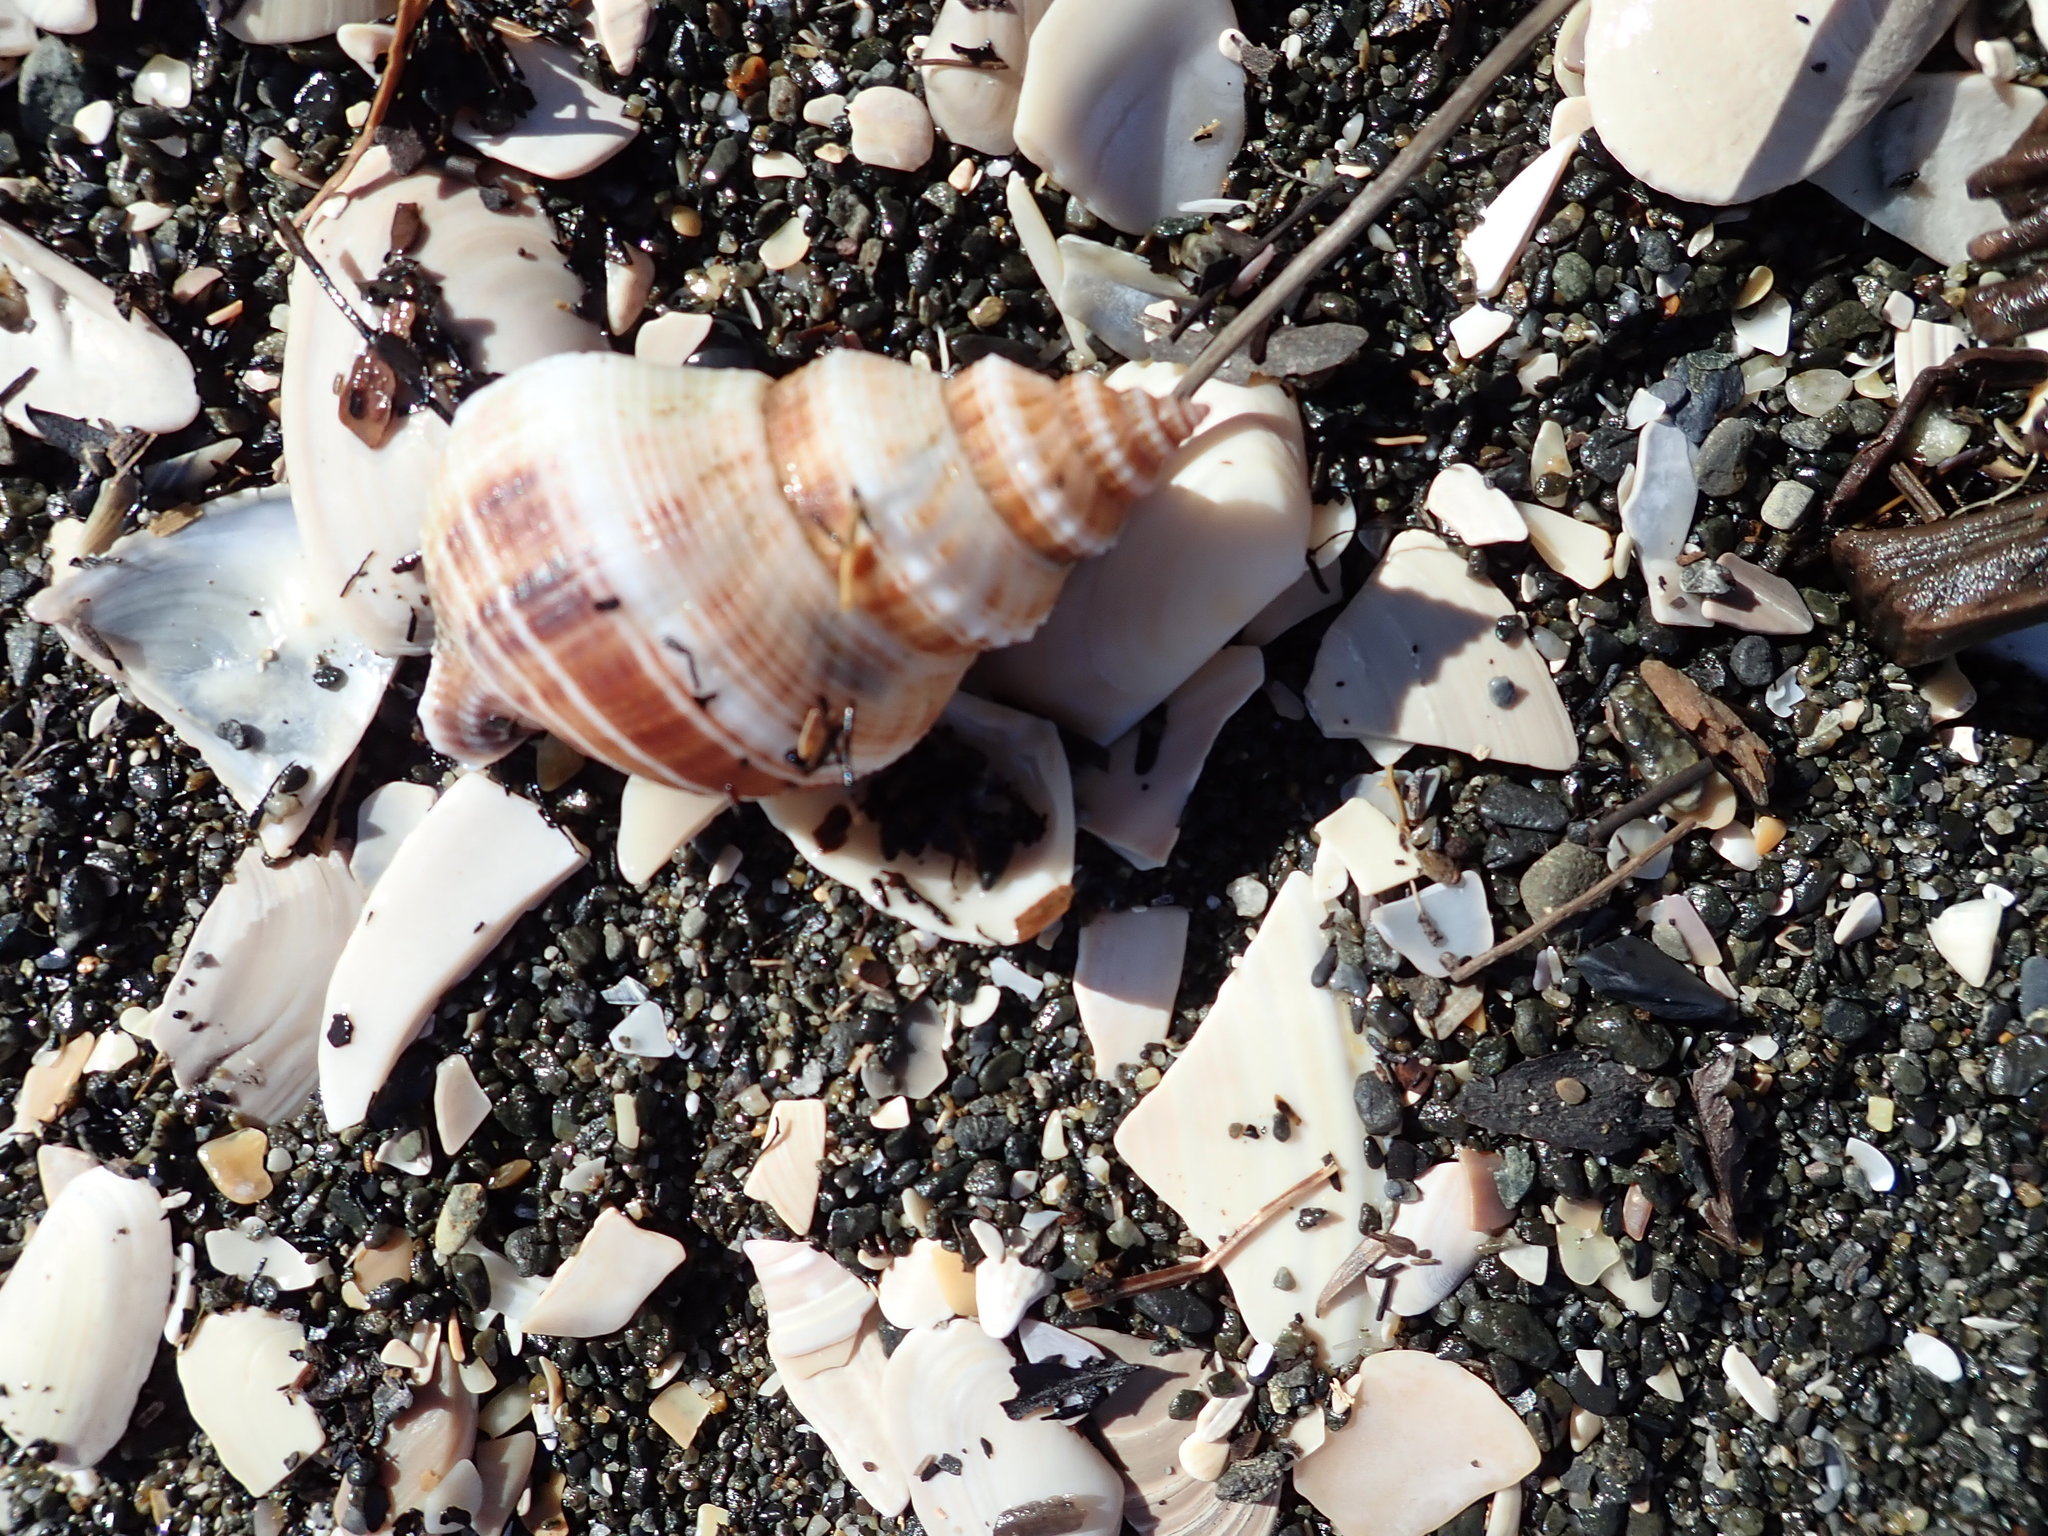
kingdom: Animalia
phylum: Mollusca
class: Gastropoda
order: Neogastropoda
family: Prosiphonidae
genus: Austrofusus
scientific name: Austrofusus glans
